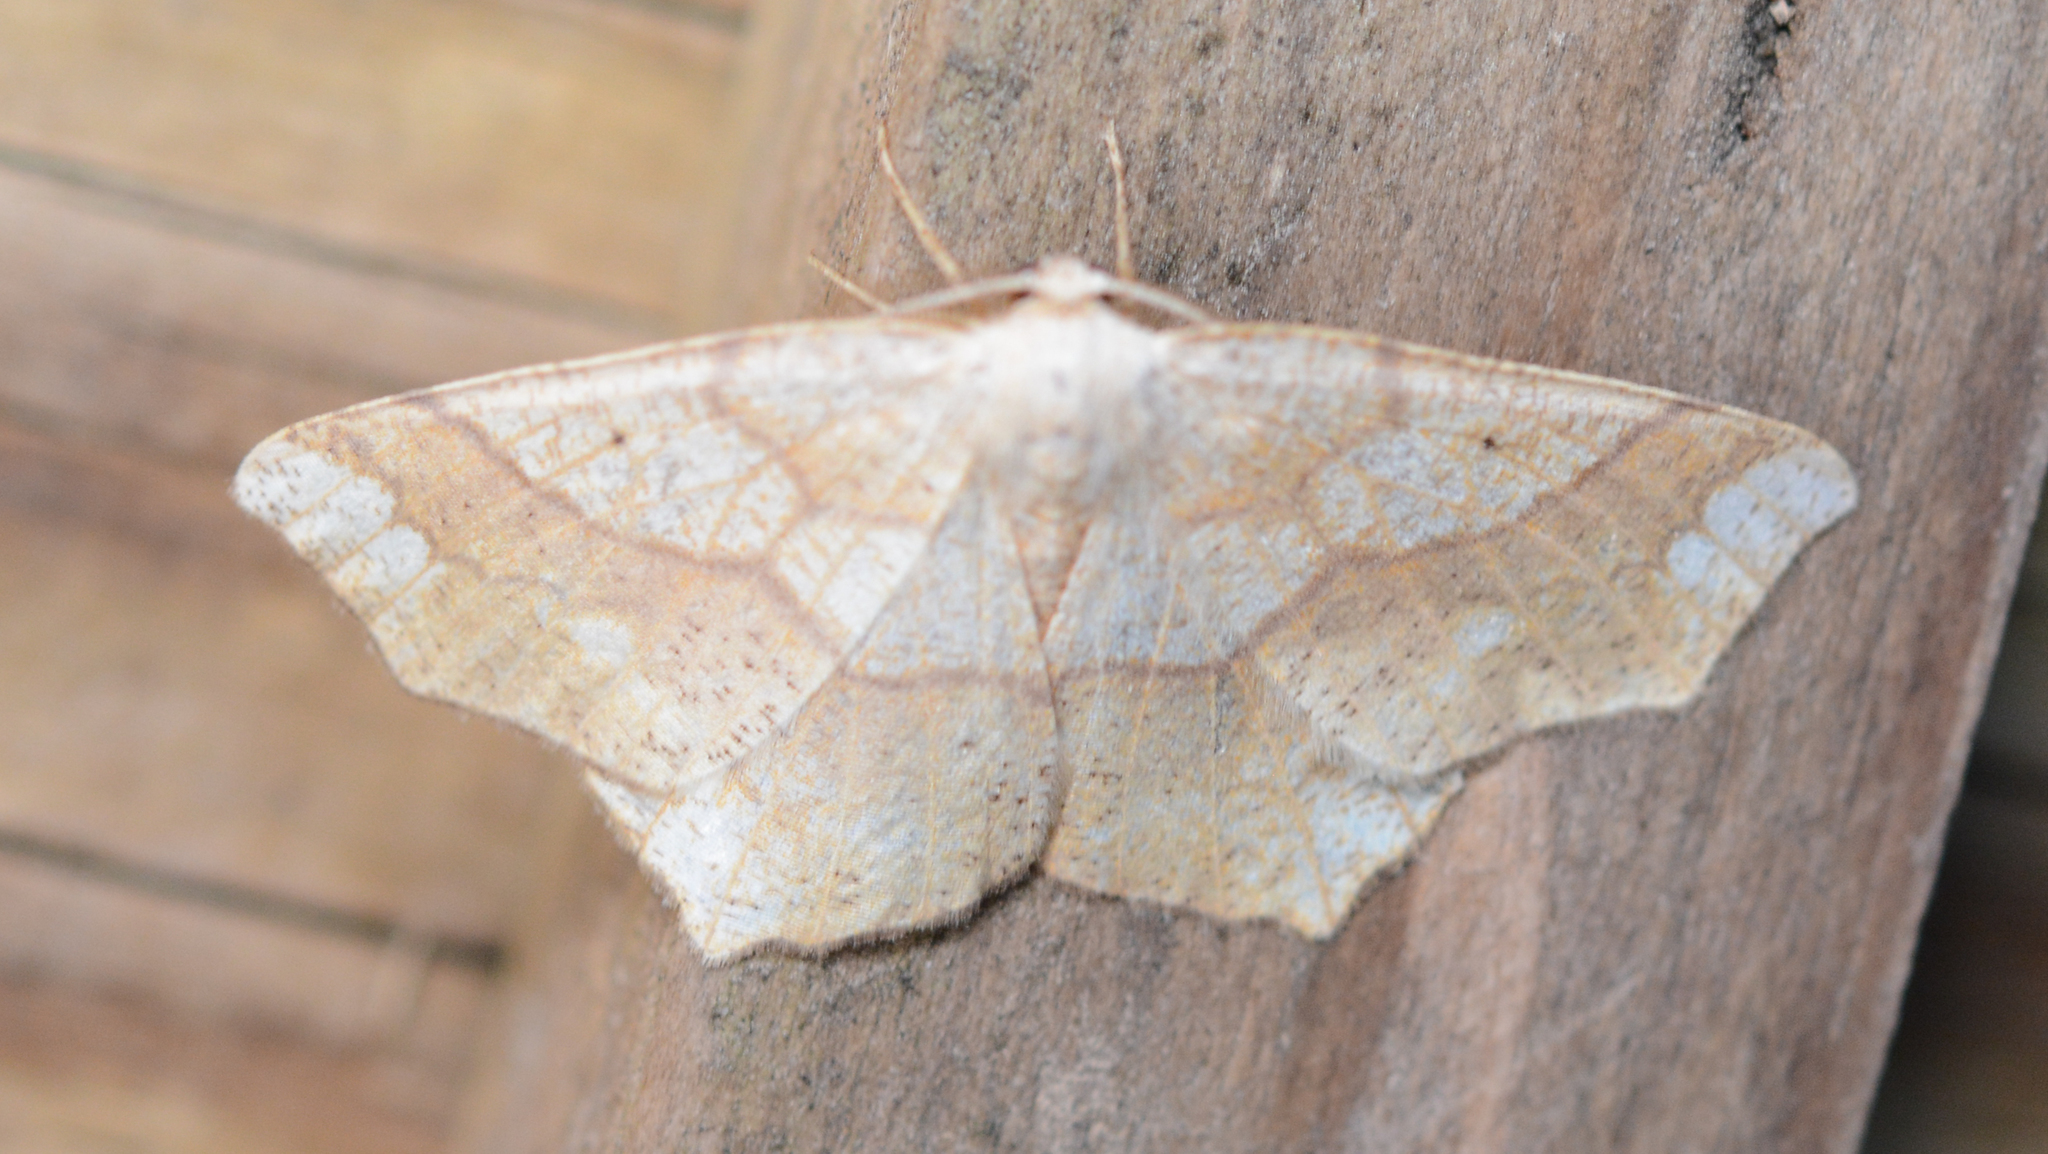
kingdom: Animalia
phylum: Arthropoda
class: Insecta
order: Lepidoptera
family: Geometridae
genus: Besma
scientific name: Besma quercivoraria
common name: Oak besma
